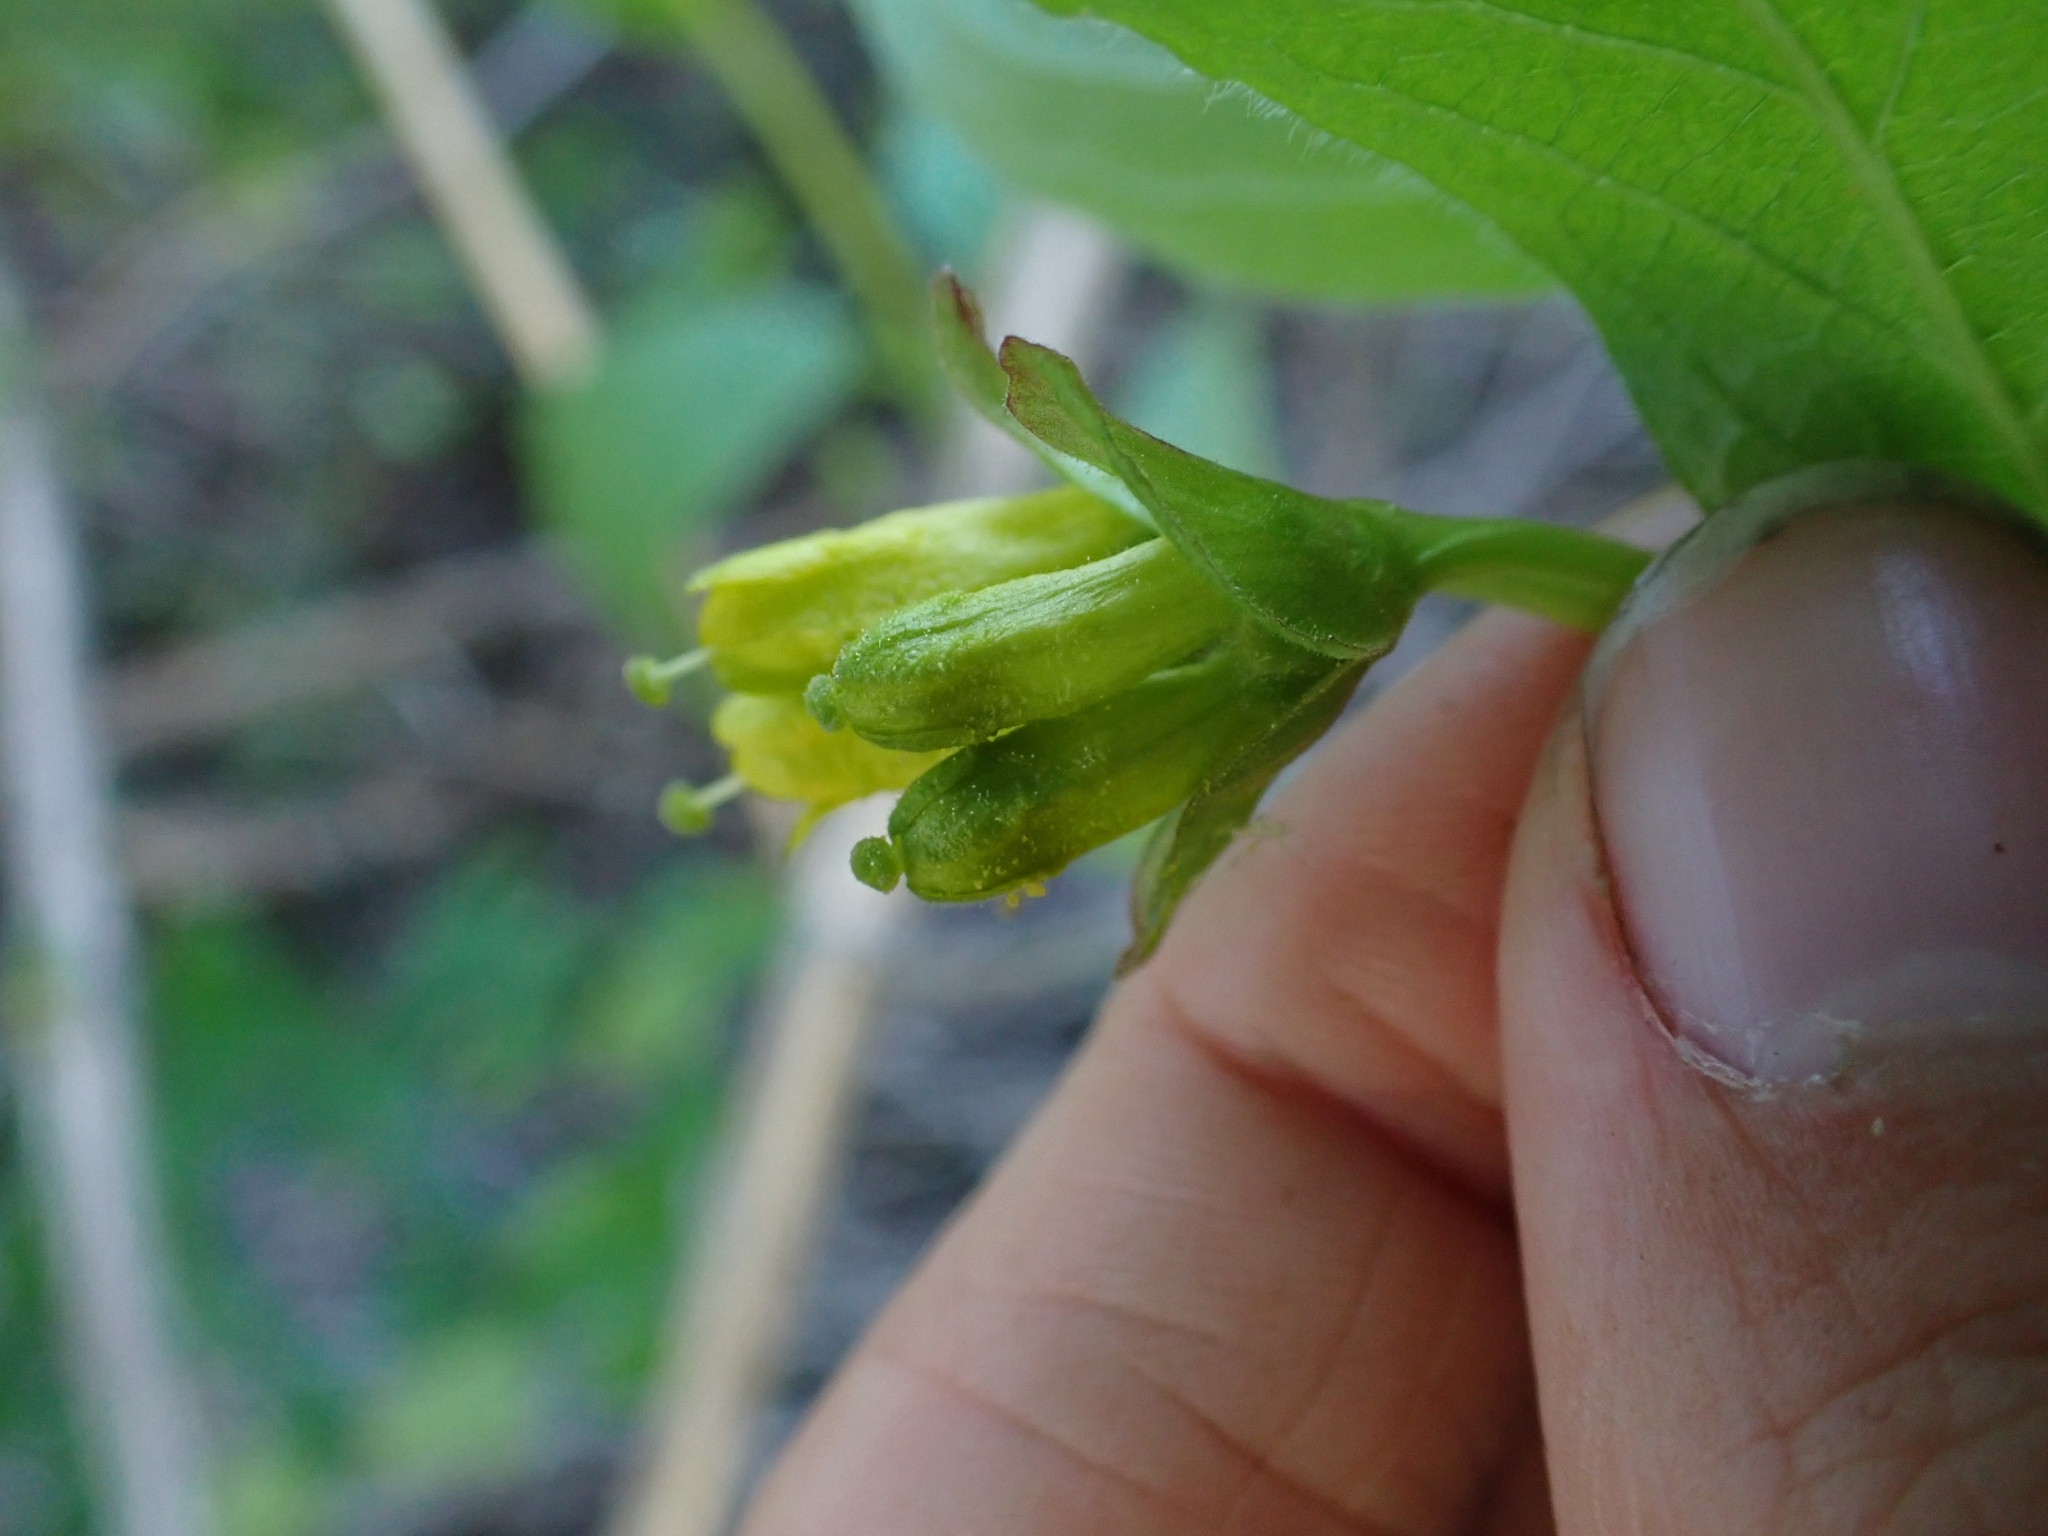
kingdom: Plantae
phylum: Tracheophyta
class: Magnoliopsida
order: Dipsacales
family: Caprifoliaceae
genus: Lonicera
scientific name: Lonicera involucrata
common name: Californian honeysuckle
